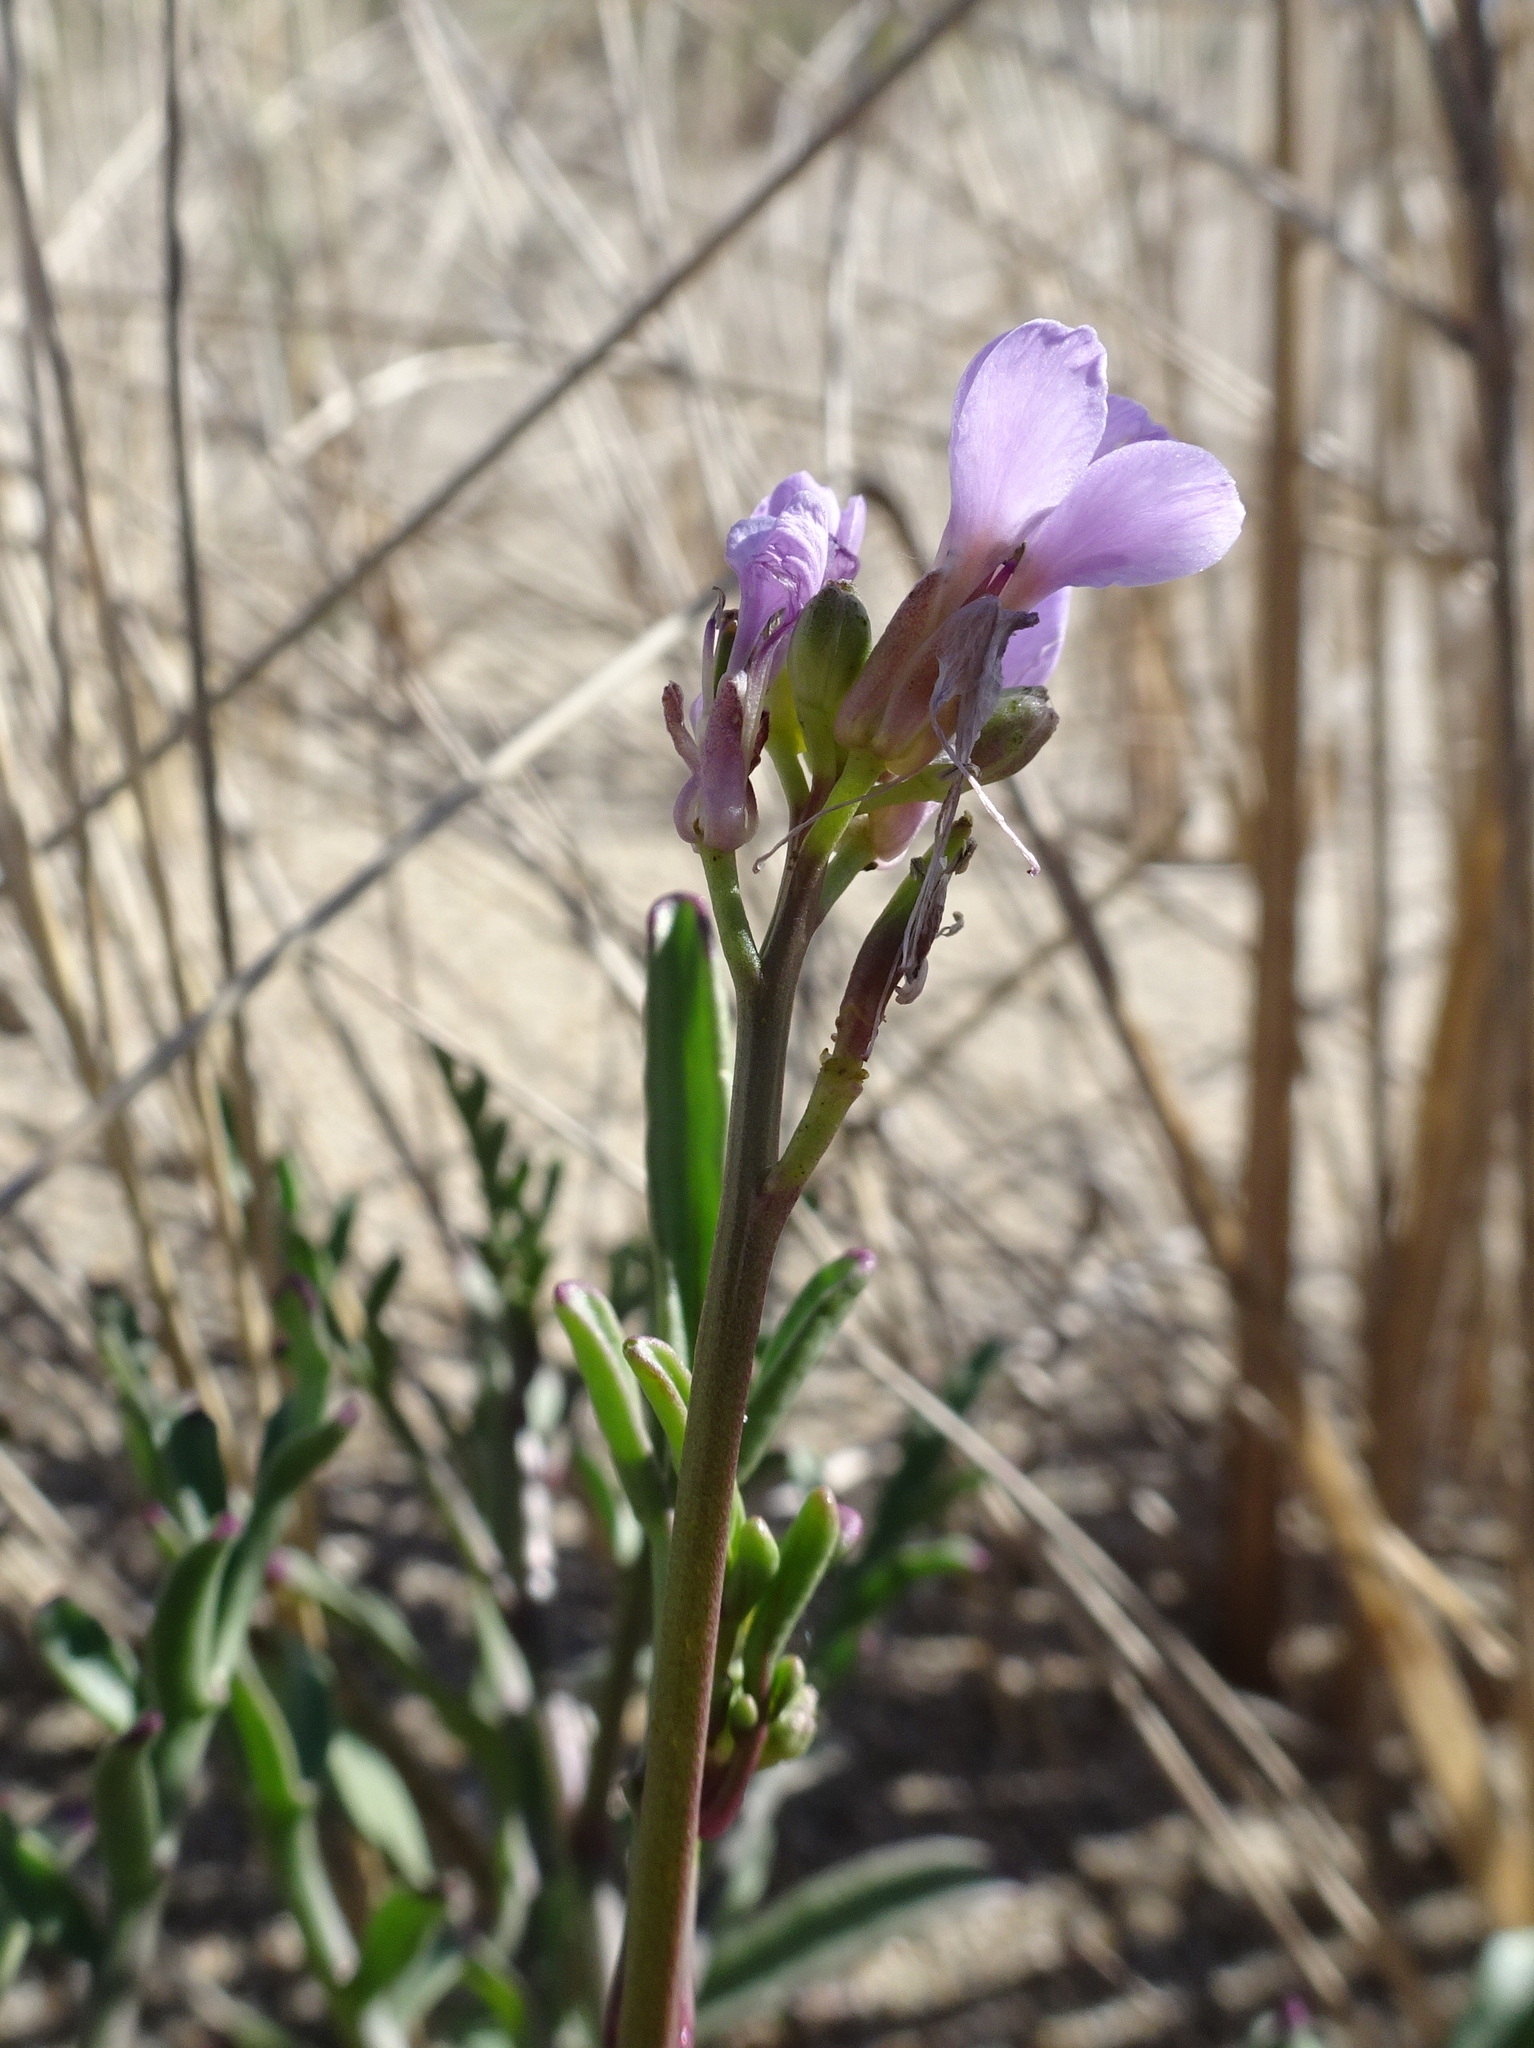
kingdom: Plantae
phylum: Tracheophyta
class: Magnoliopsida
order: Brassicales
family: Brassicaceae
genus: Cakile
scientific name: Cakile maritima
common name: Sea rocket
